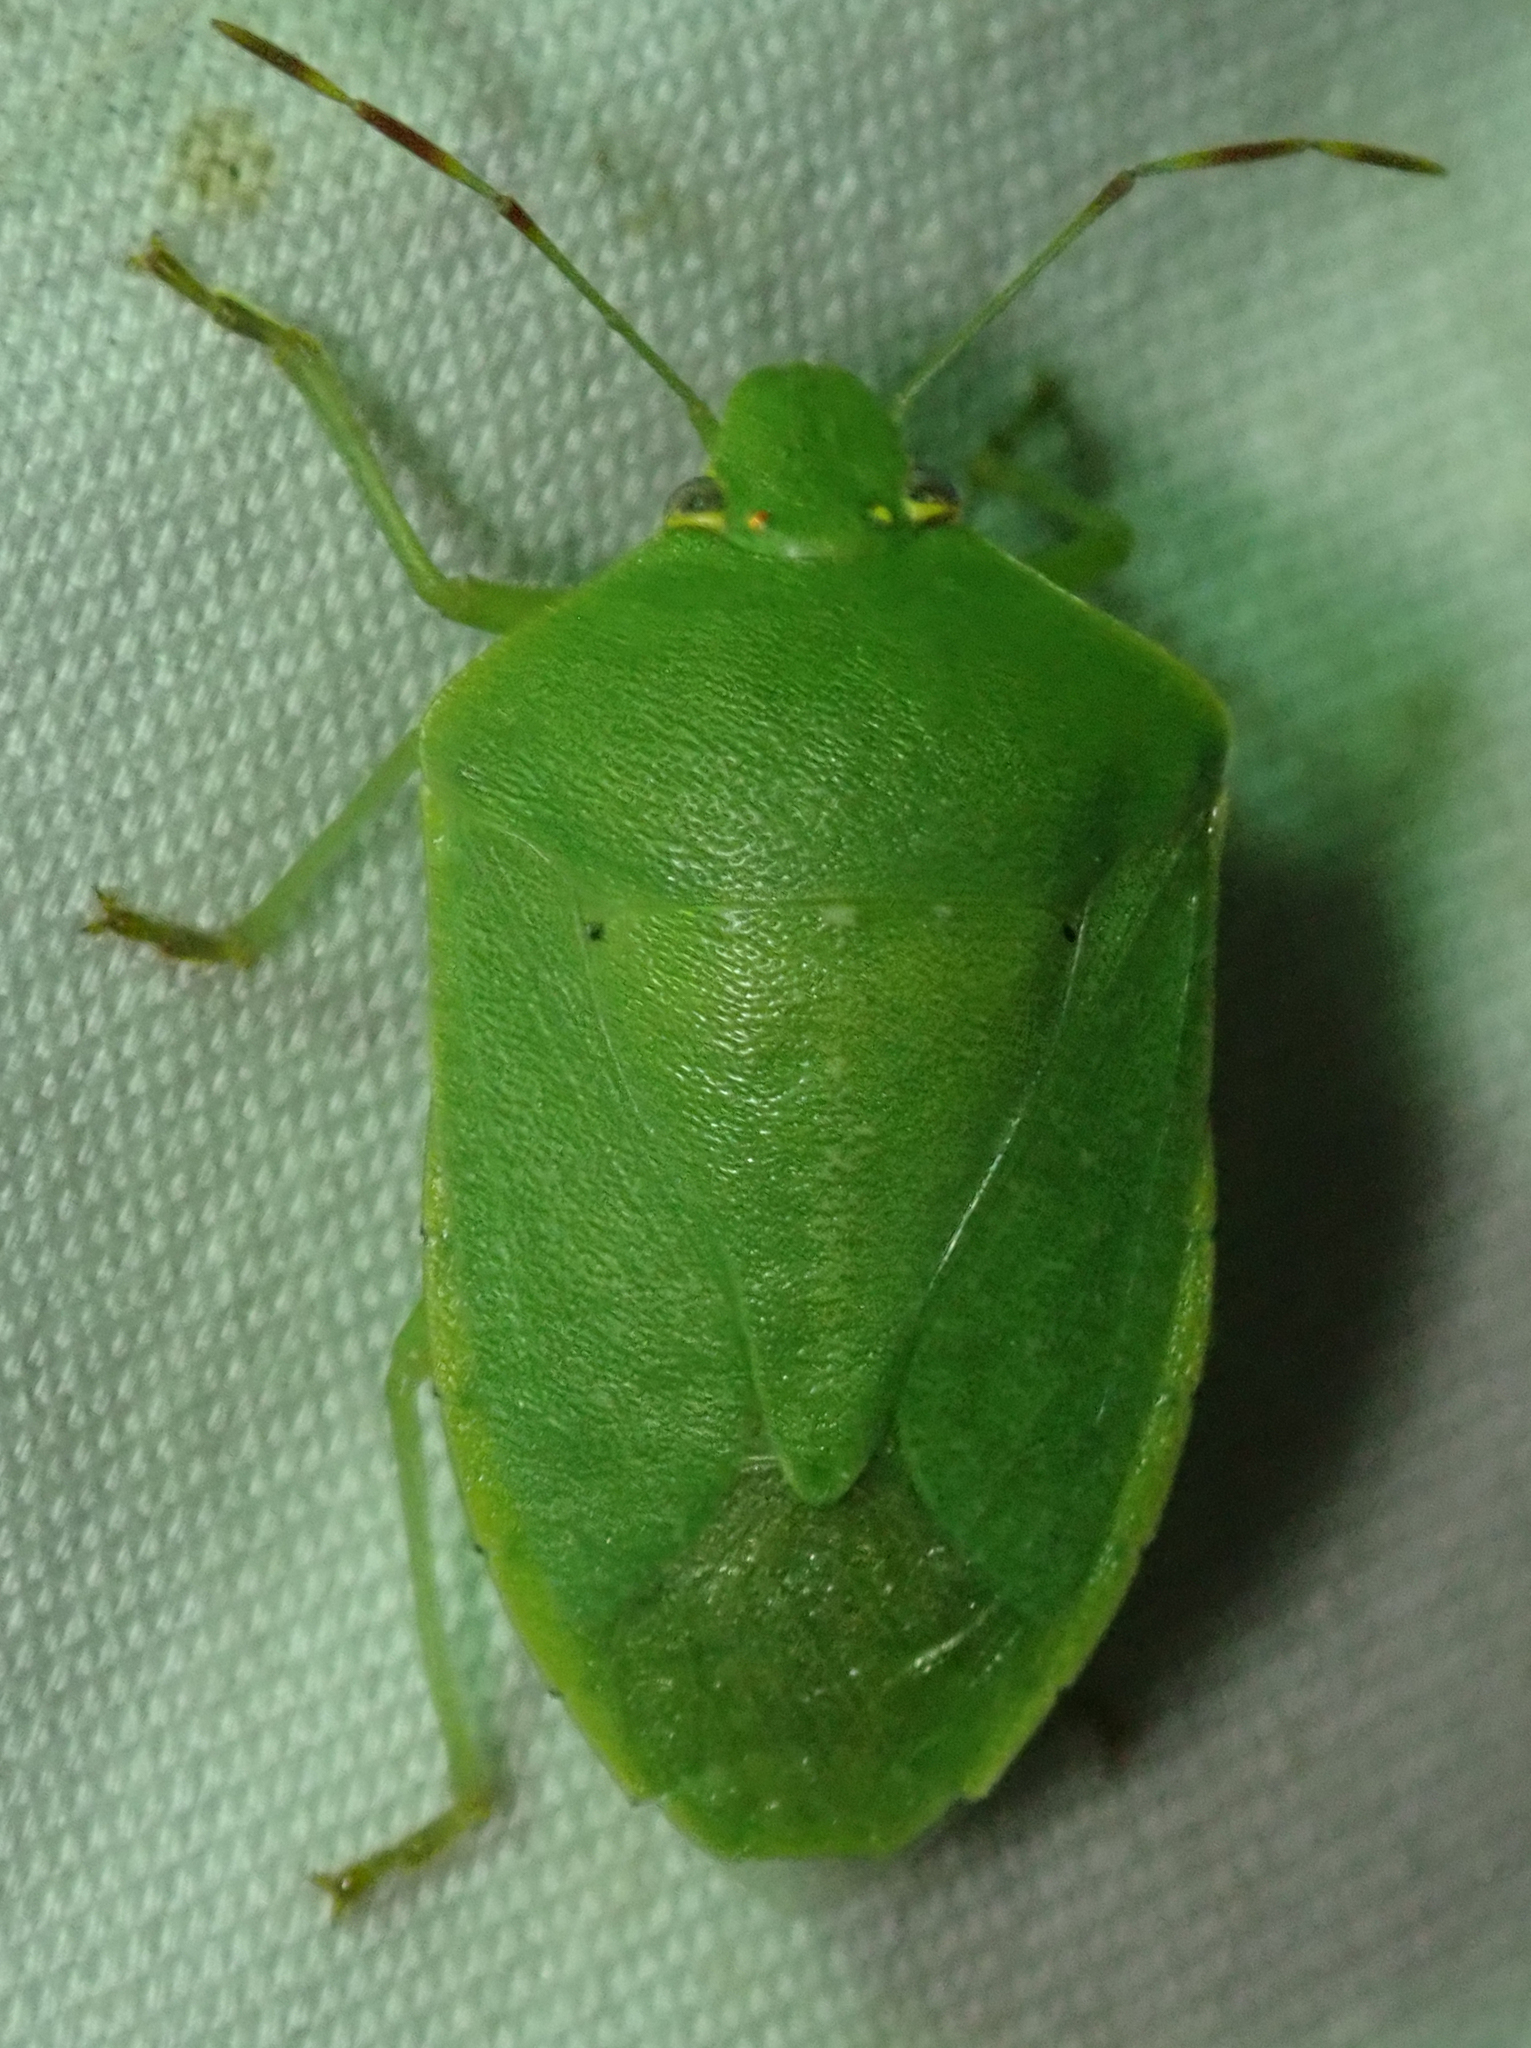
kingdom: Animalia
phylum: Arthropoda
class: Insecta
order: Hemiptera
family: Pentatomidae
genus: Nezara
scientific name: Nezara viridula
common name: Southern green stink bug
